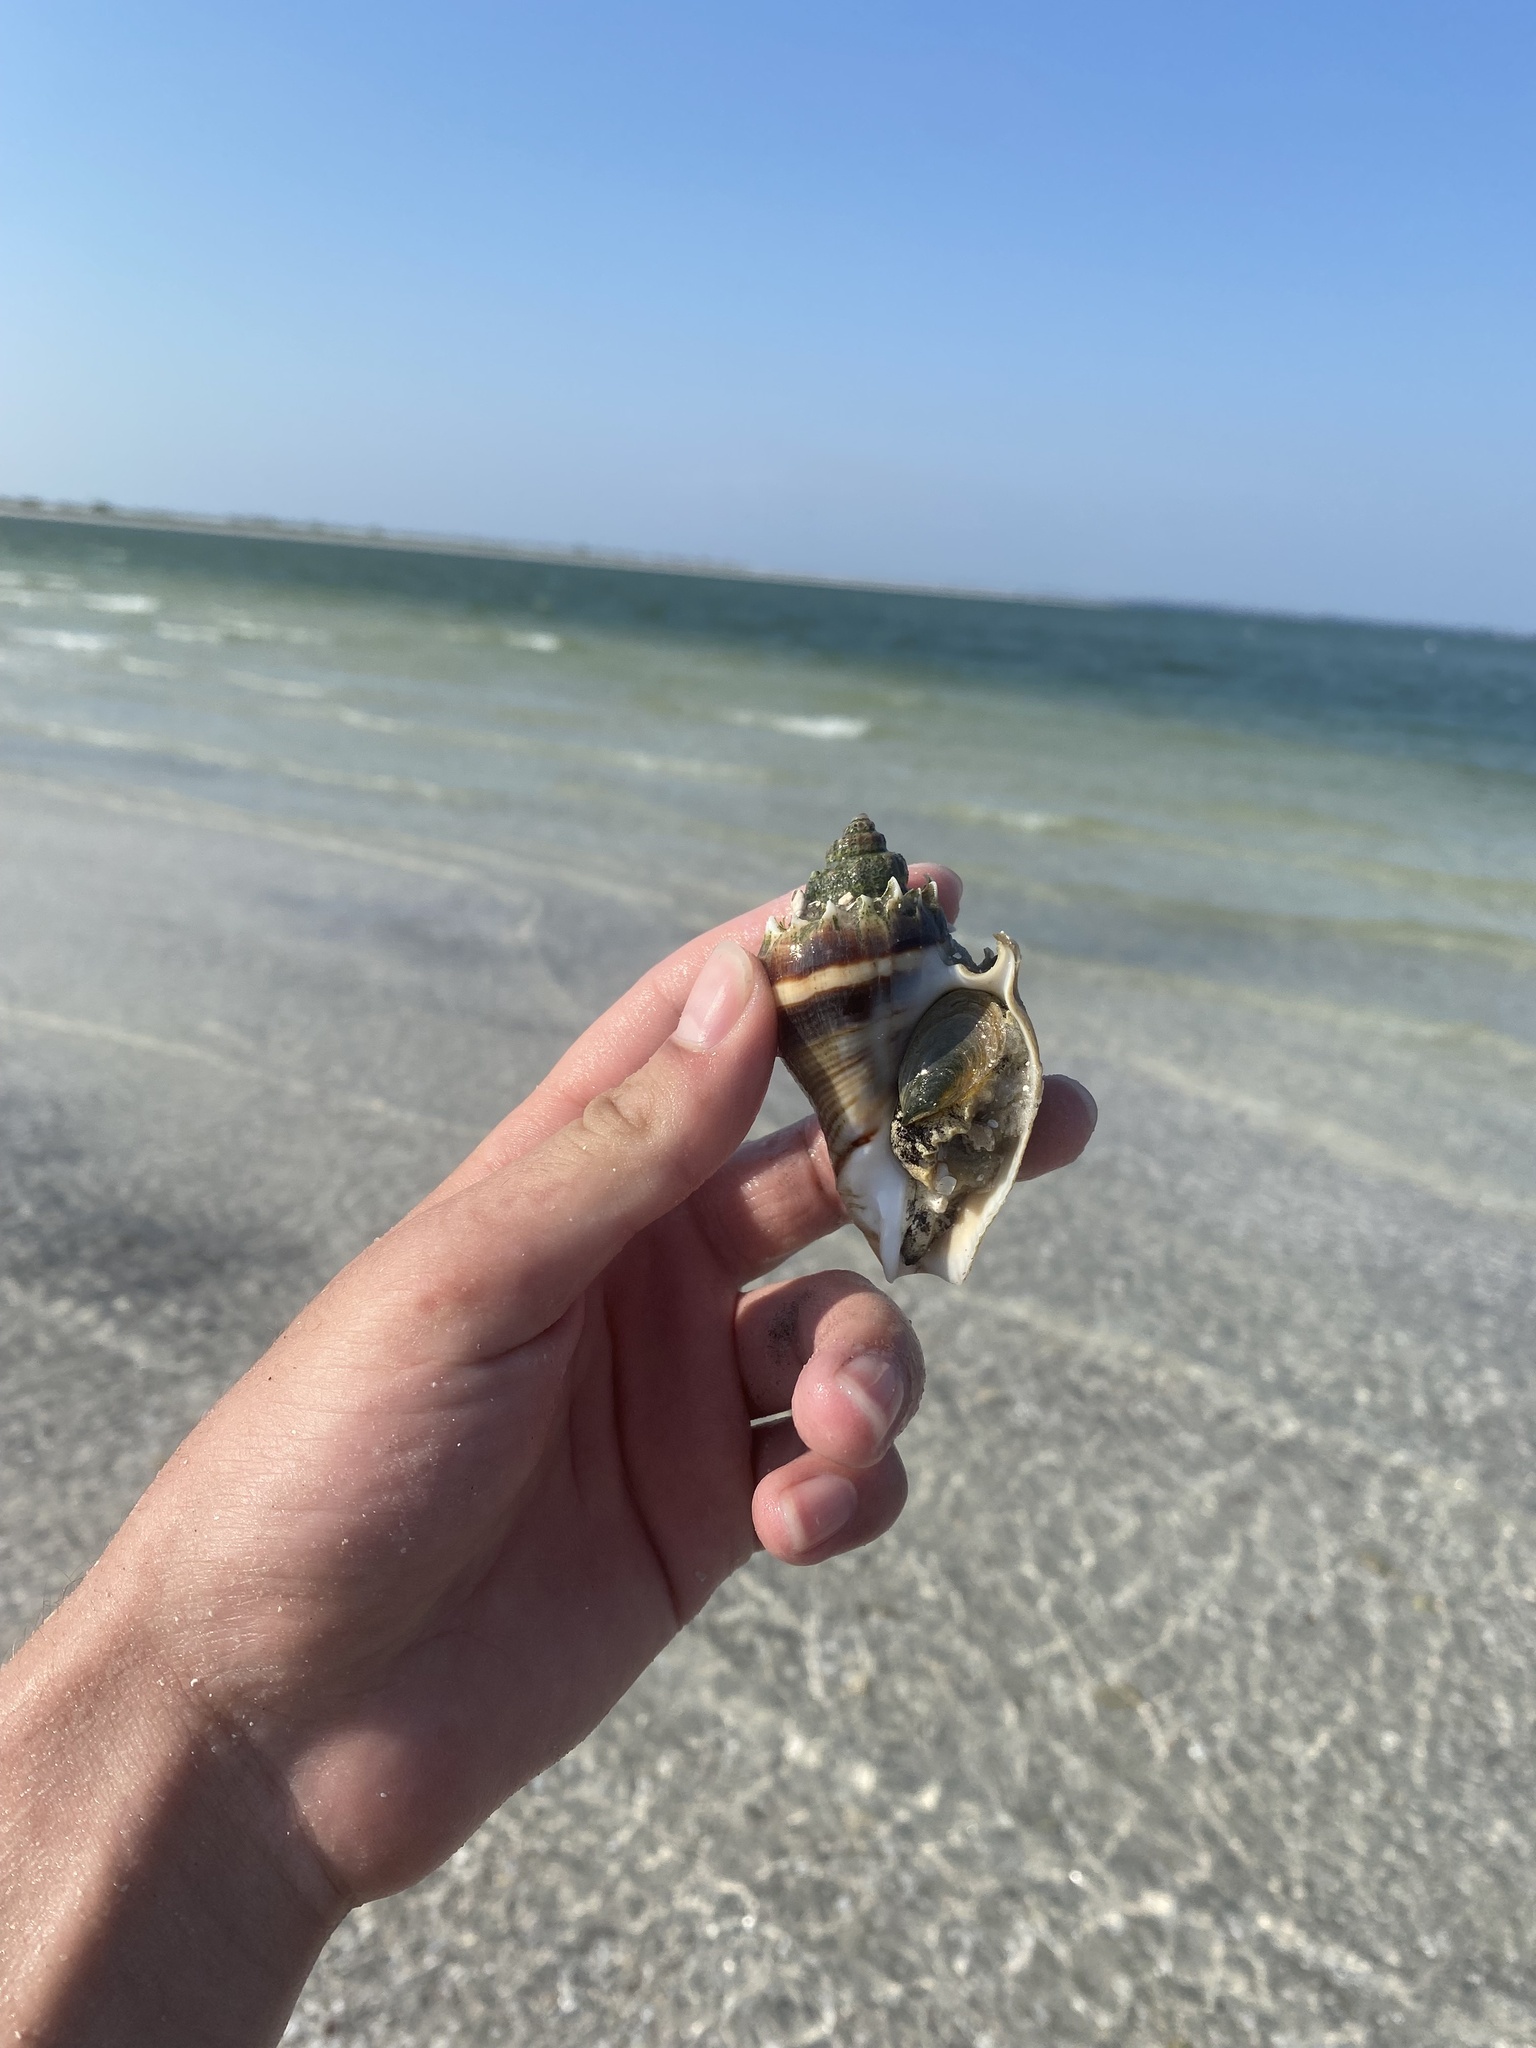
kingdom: Animalia
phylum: Mollusca
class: Gastropoda
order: Neogastropoda
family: Melongenidae
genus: Melongena
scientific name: Melongena corona
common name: American crown conch
